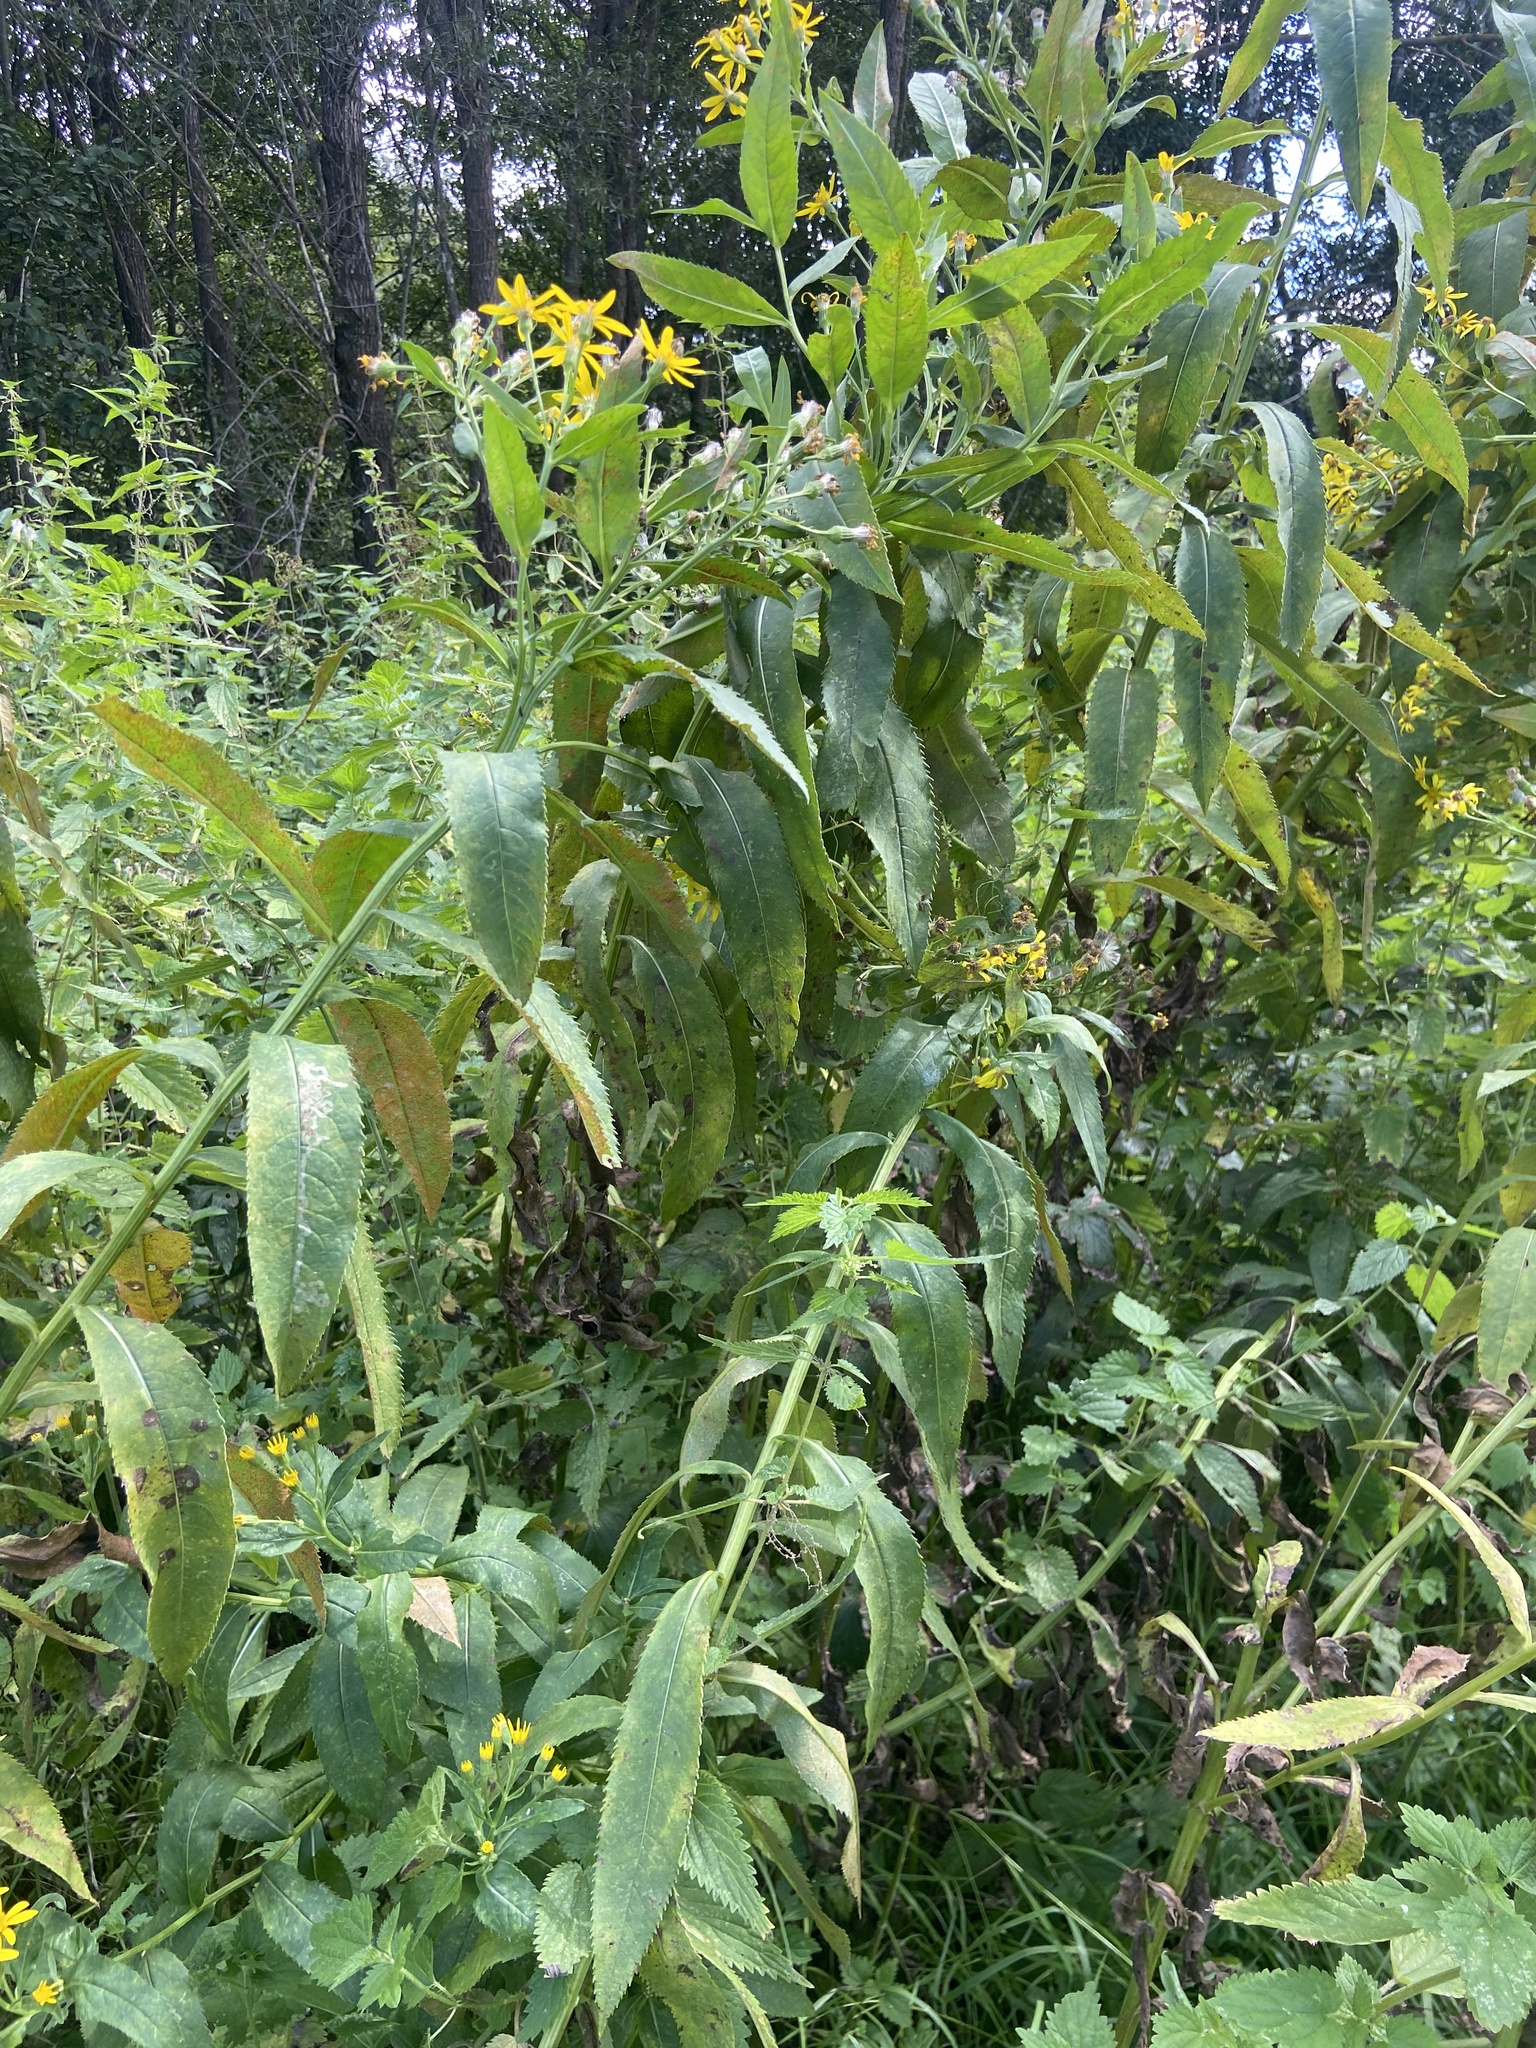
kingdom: Plantae
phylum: Tracheophyta
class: Magnoliopsida
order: Asterales
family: Asteraceae
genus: Senecio
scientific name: Senecio sarracenicus
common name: Broad-leaved ragwort
